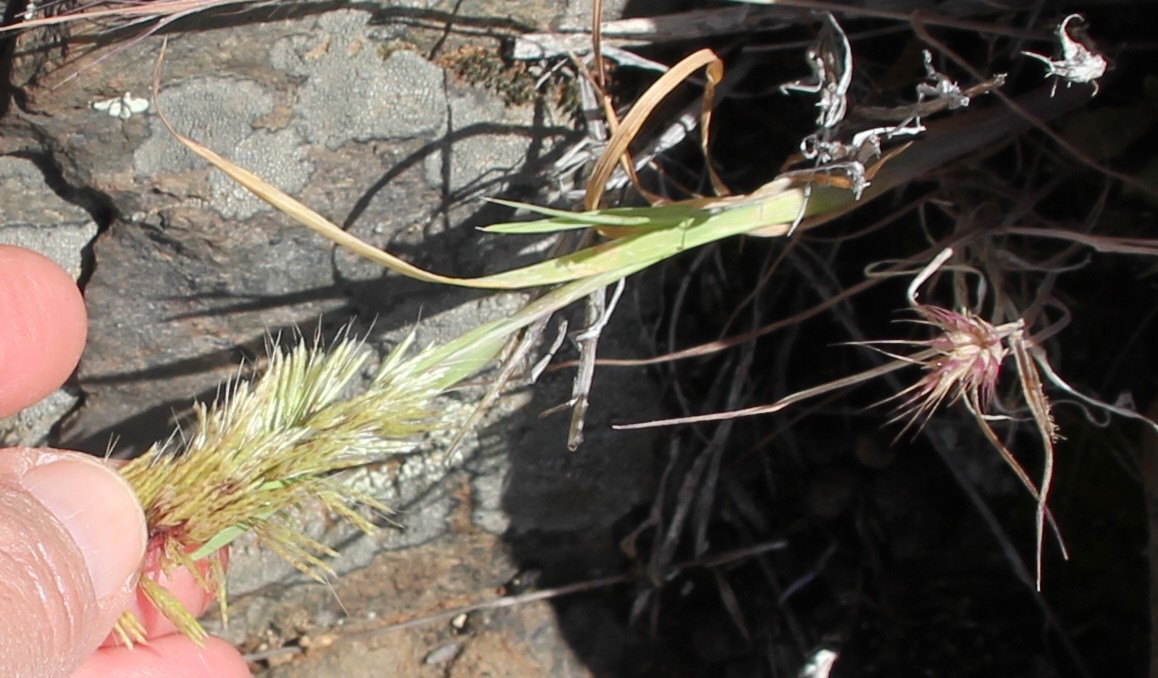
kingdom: Plantae
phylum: Tracheophyta
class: Liliopsida
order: Poales
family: Poaceae
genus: Lamarckia
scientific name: Lamarckia aurea
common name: Golden dog's-tail
